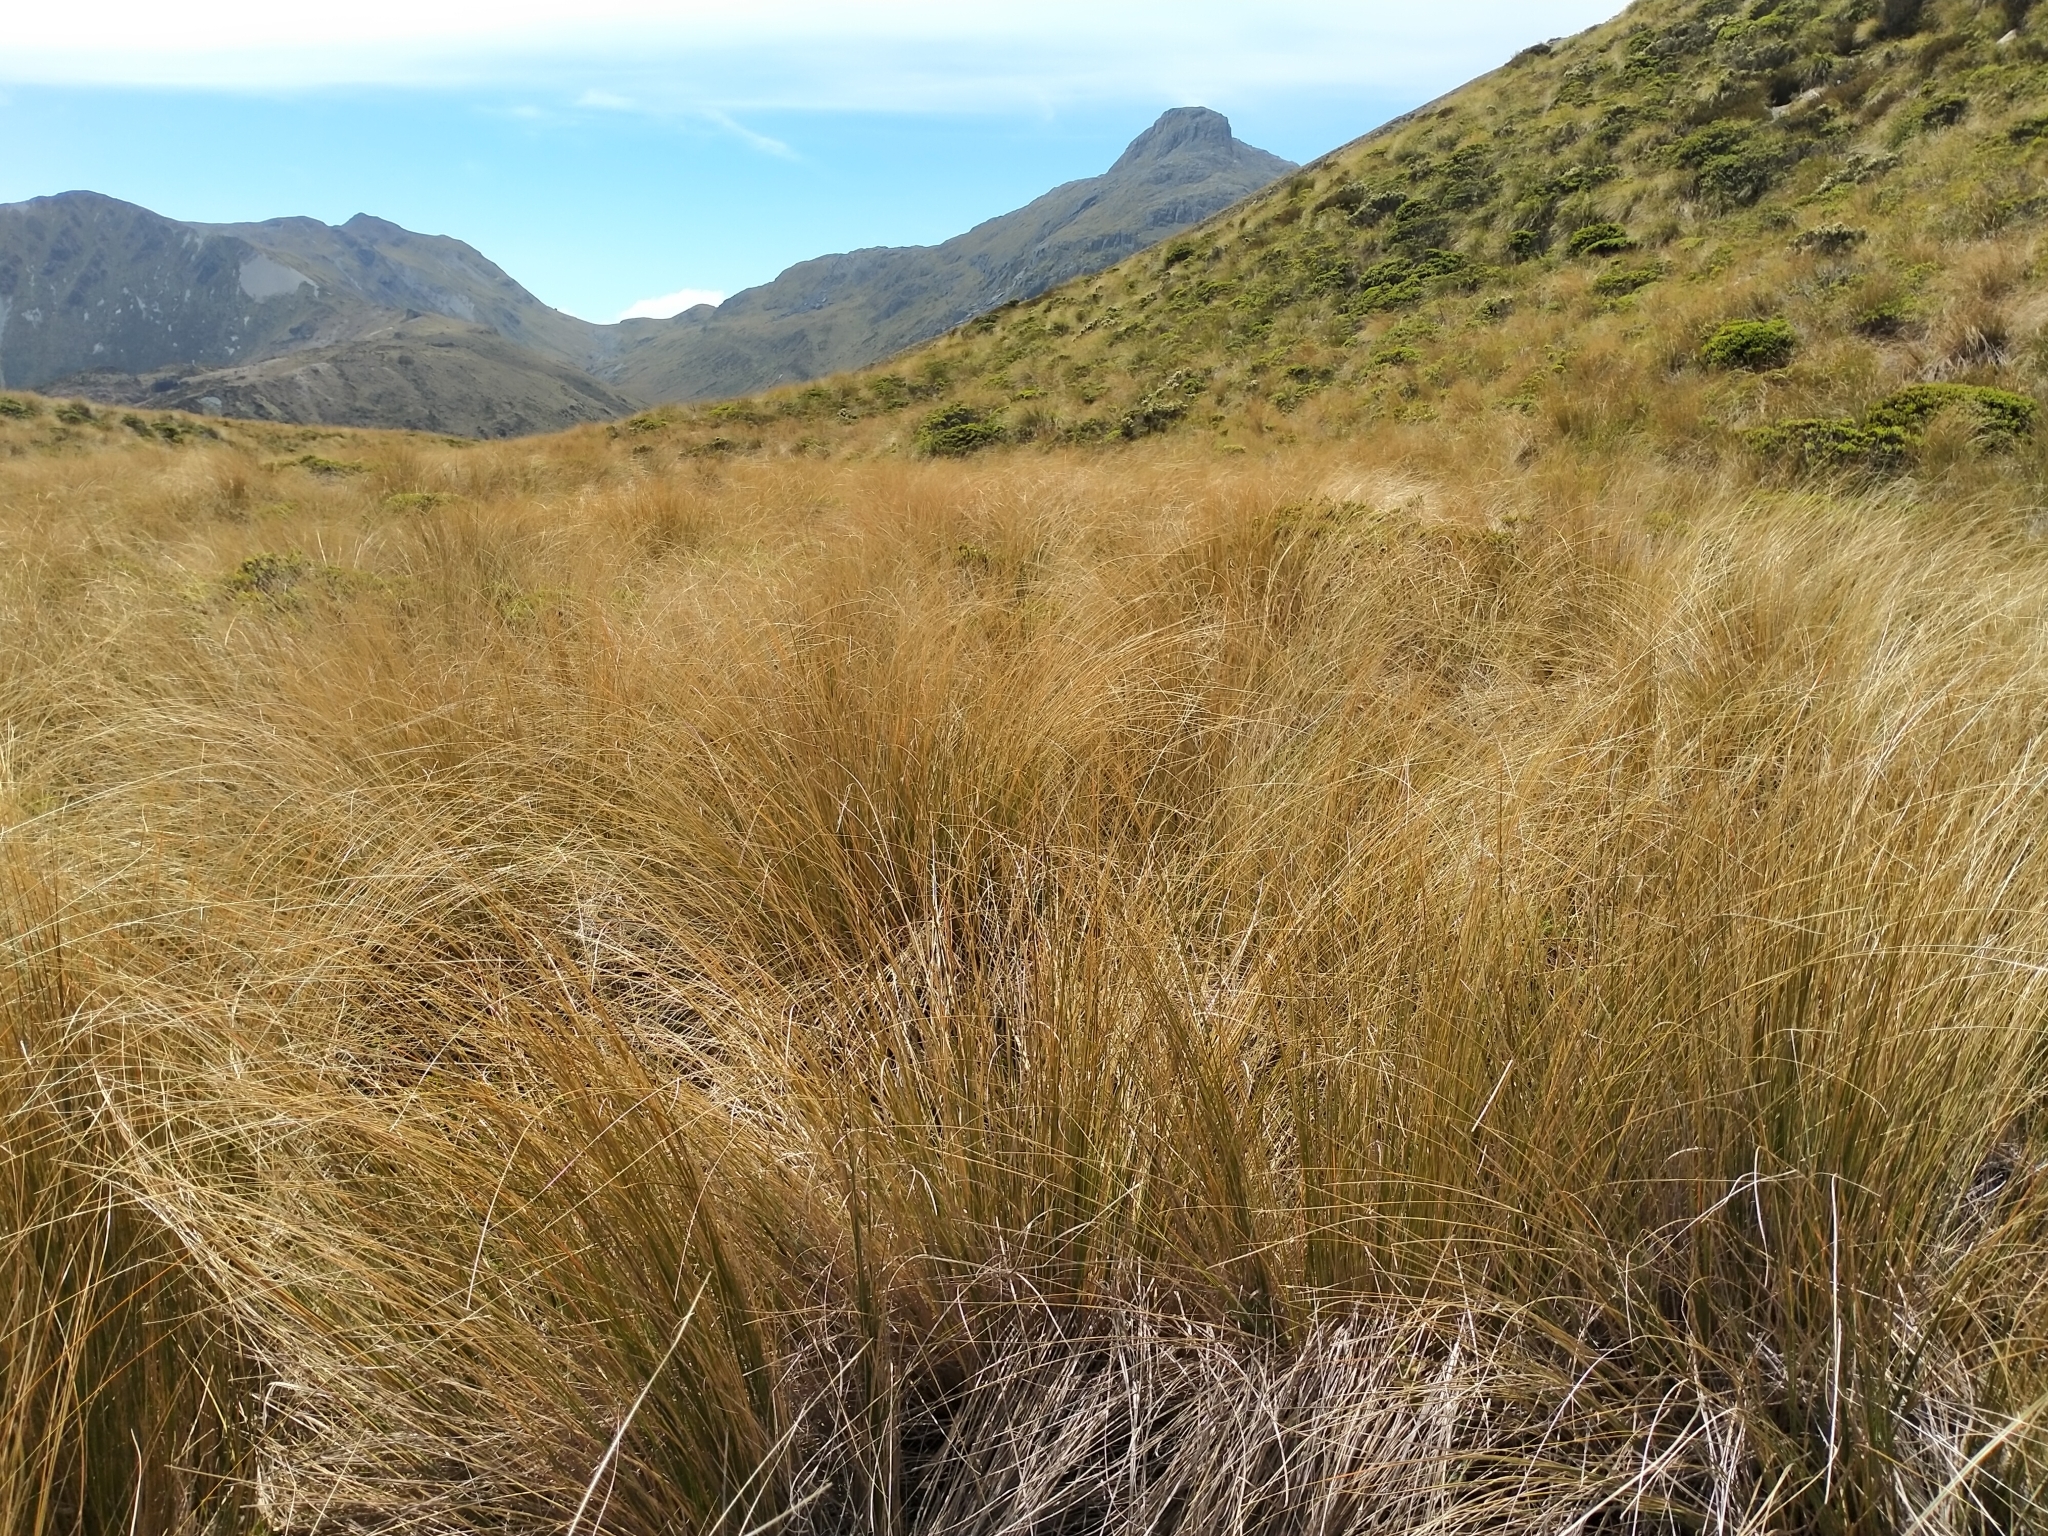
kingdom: Plantae
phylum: Tracheophyta
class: Liliopsida
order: Poales
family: Poaceae
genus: Chionochloa
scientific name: Chionochloa rubra
